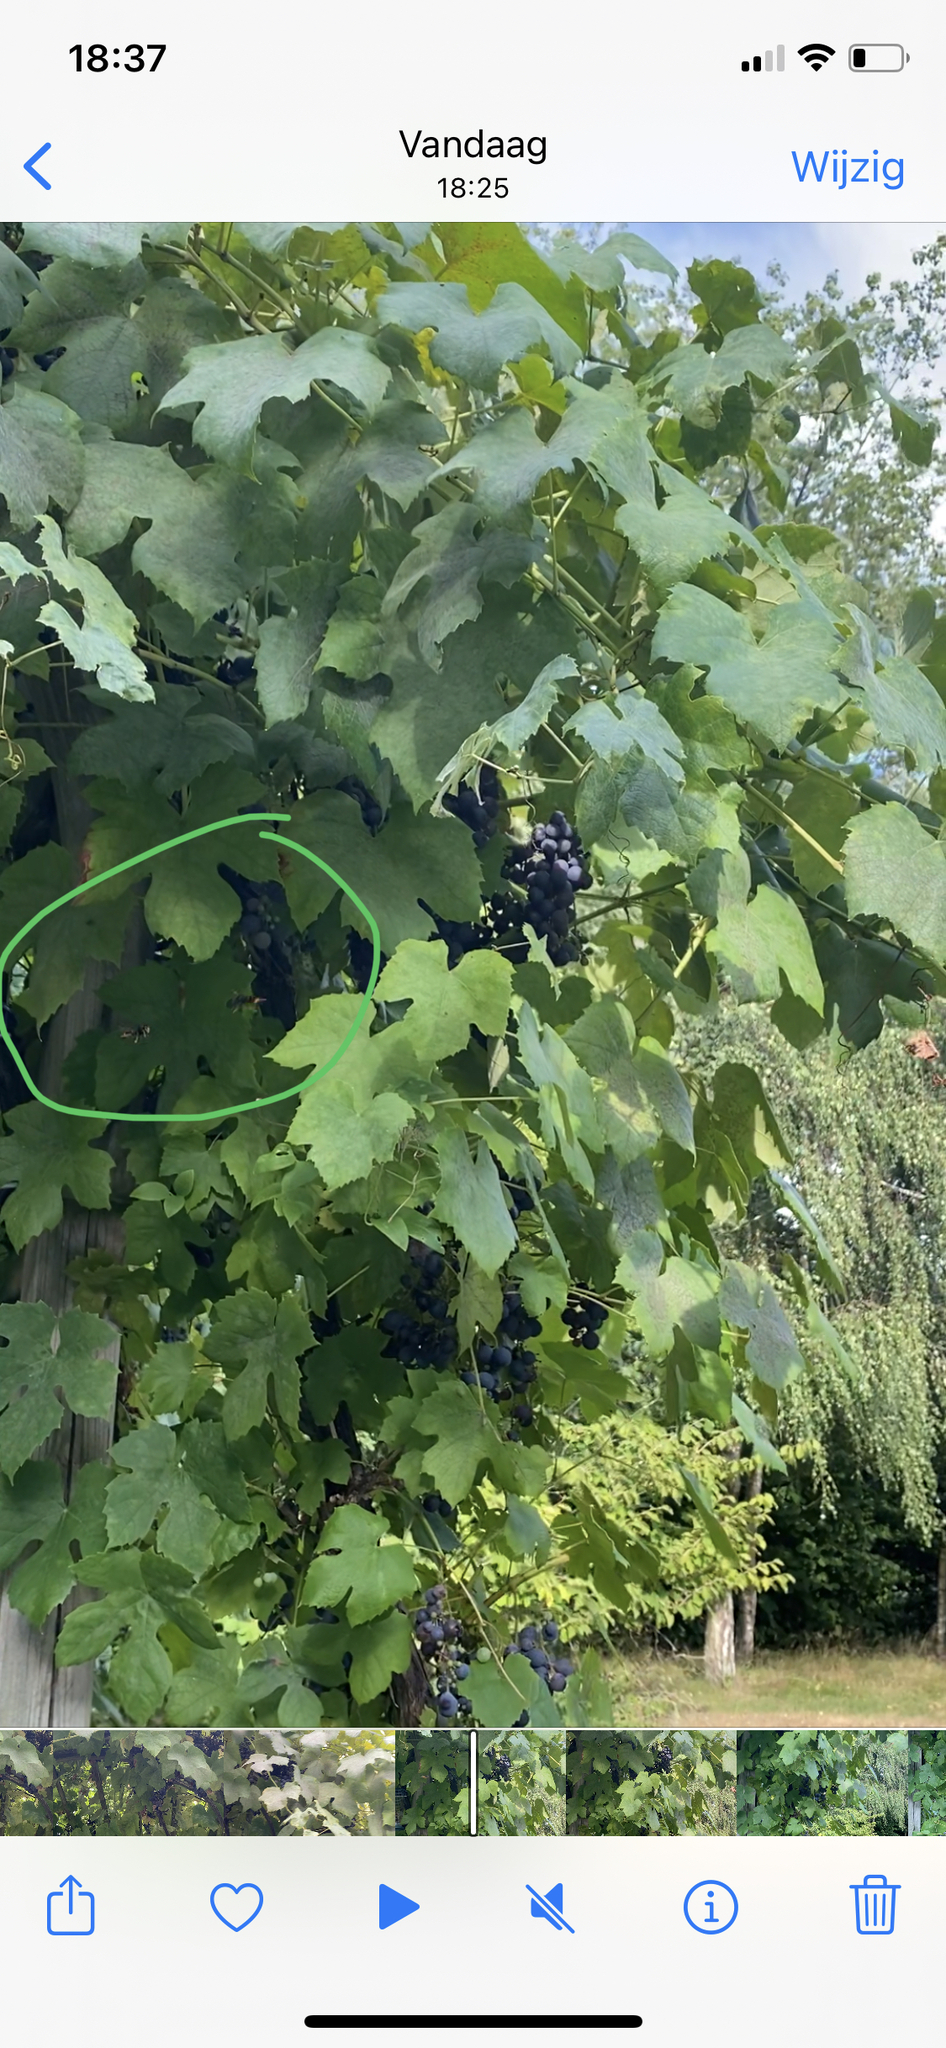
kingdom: Animalia
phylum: Arthropoda
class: Insecta
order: Hymenoptera
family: Vespidae
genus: Vespa
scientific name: Vespa velutina
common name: Asian hornet
